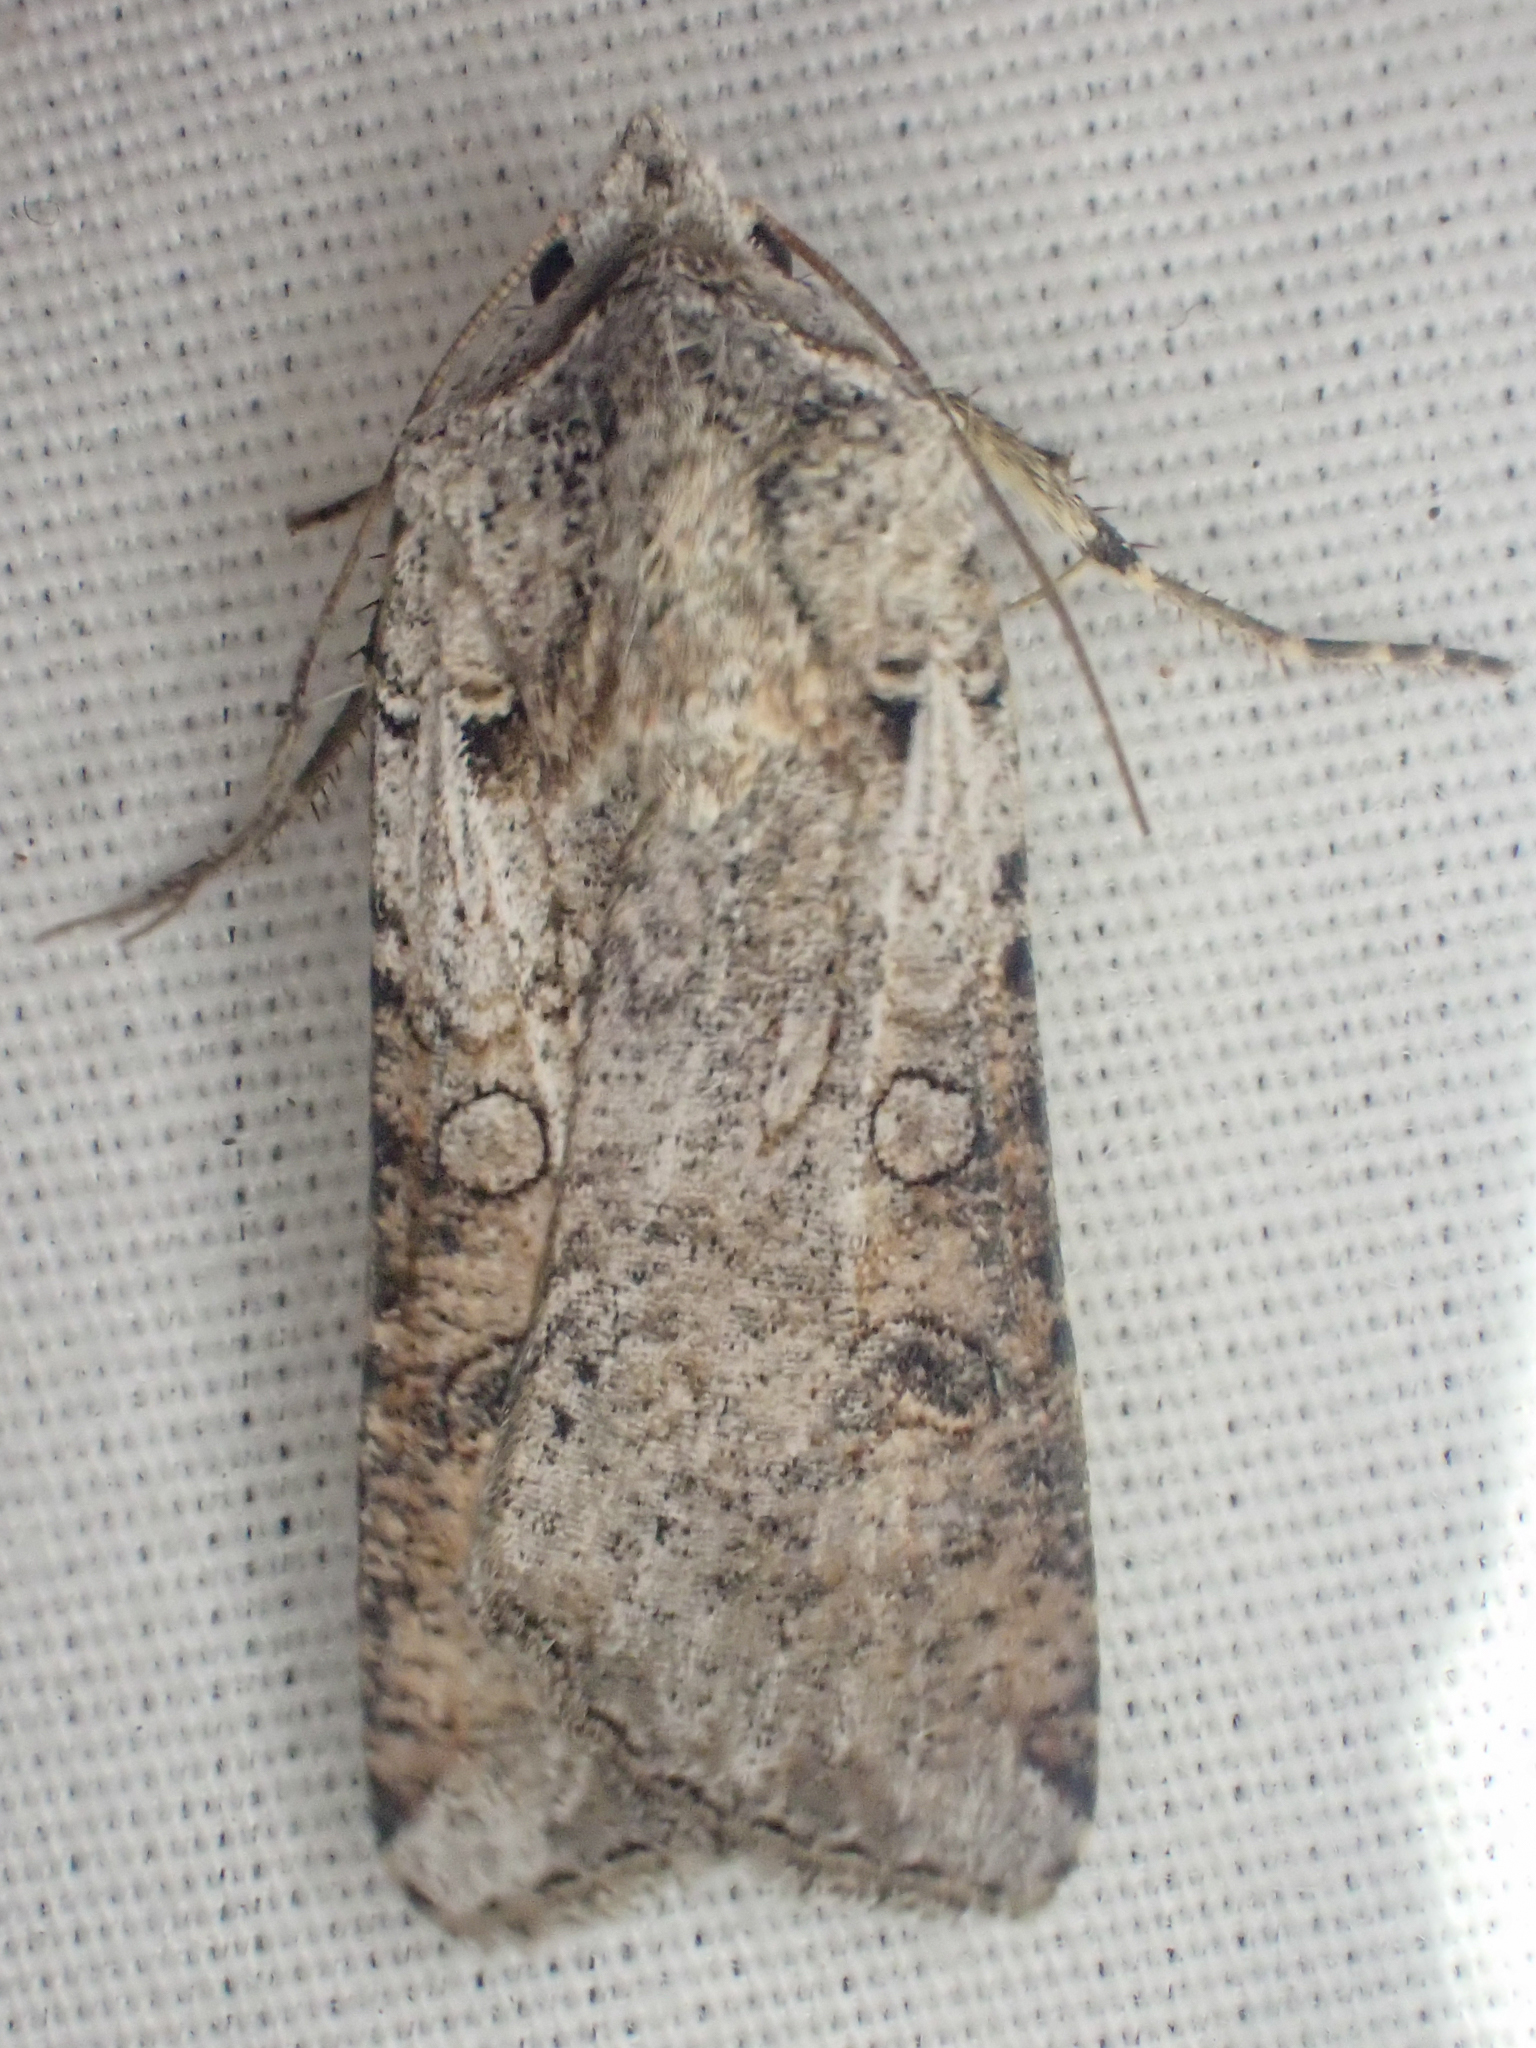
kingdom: Animalia
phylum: Arthropoda
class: Insecta
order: Lepidoptera
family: Noctuidae
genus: Hemieuxoa
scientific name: Hemieuxoa rudens
